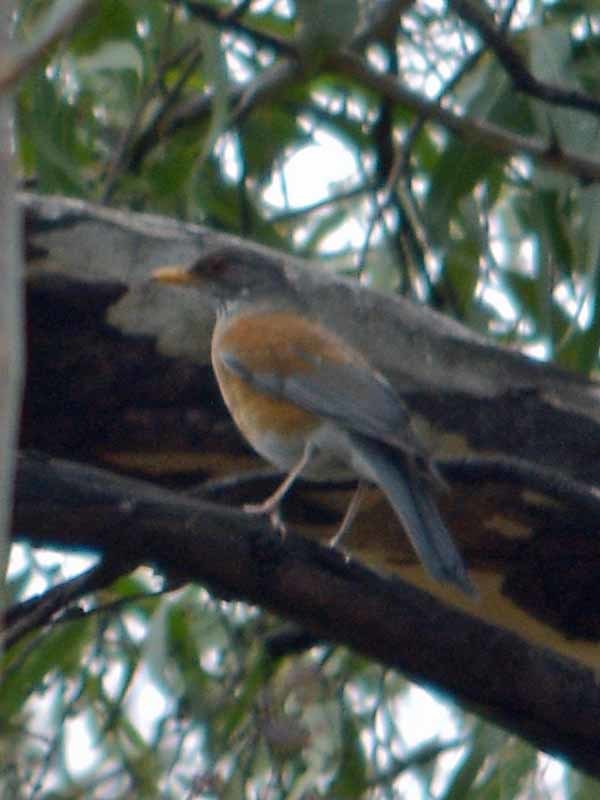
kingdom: Animalia
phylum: Chordata
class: Aves
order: Passeriformes
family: Turdidae
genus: Turdus
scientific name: Turdus rufopalliatus
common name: Rufous-backed robin
